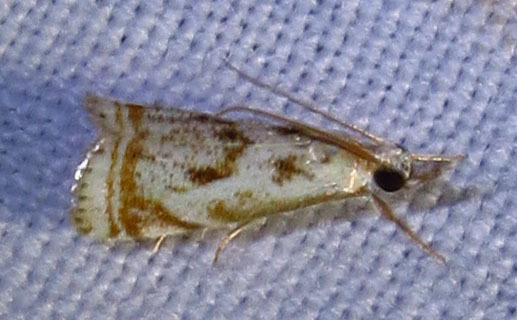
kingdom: Animalia
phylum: Arthropoda
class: Insecta
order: Lepidoptera
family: Crambidae
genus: Microcrambus
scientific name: Microcrambus elegans
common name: Elegant grass-veneer
